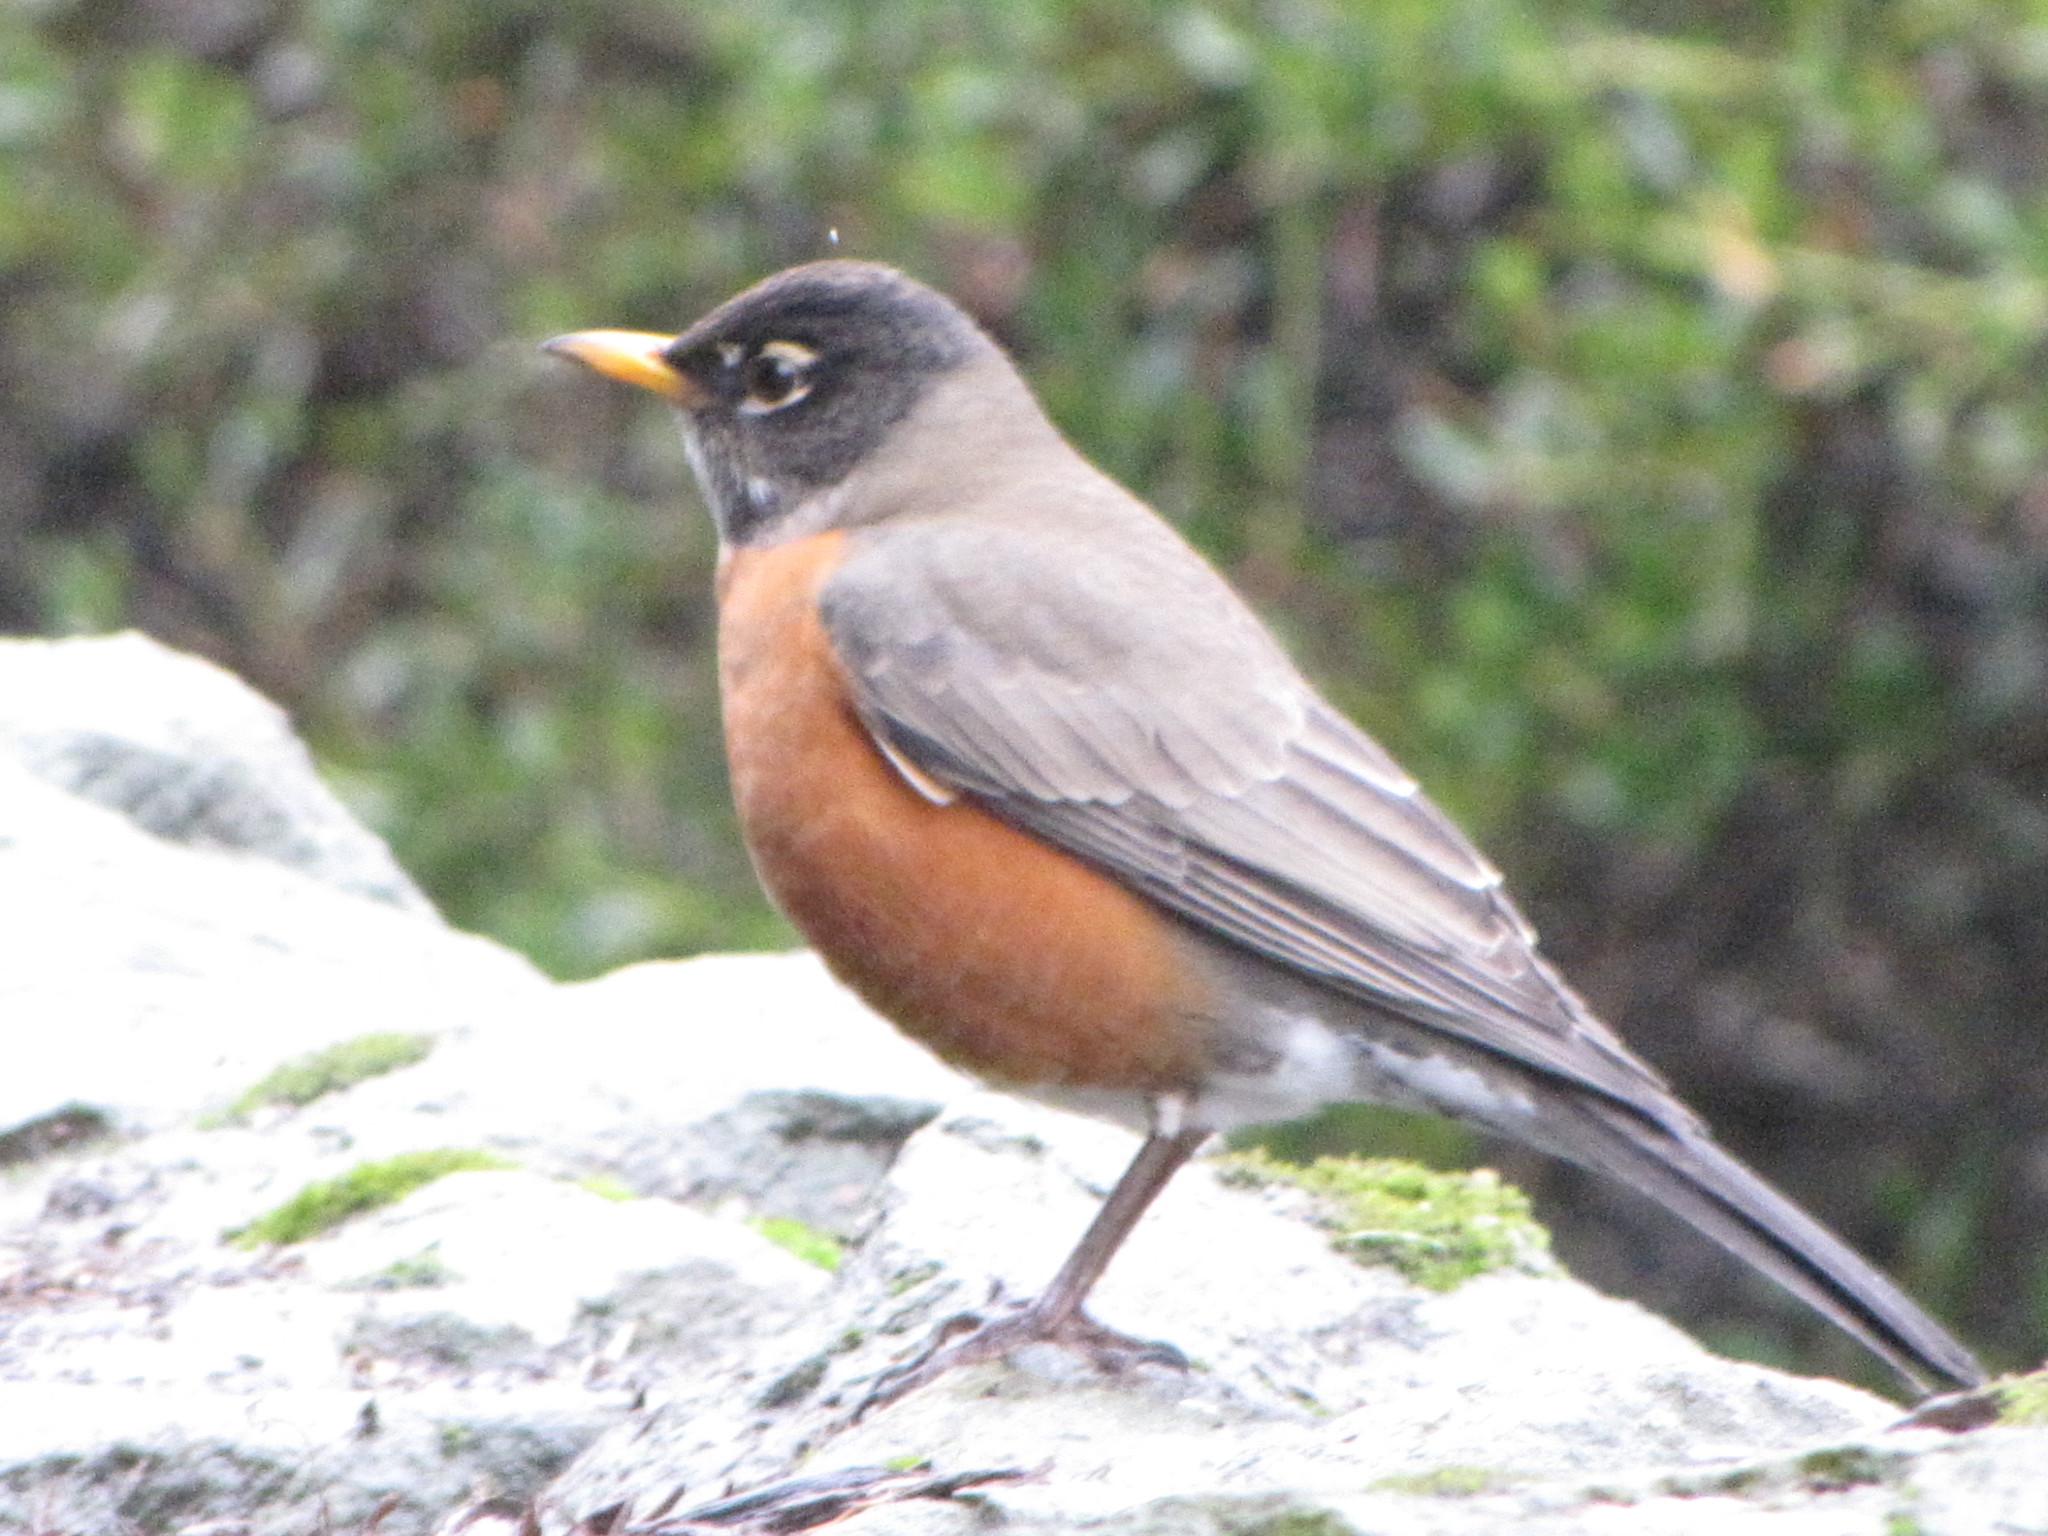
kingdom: Animalia
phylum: Chordata
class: Aves
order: Passeriformes
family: Turdidae
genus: Turdus
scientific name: Turdus migratorius
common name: American robin
